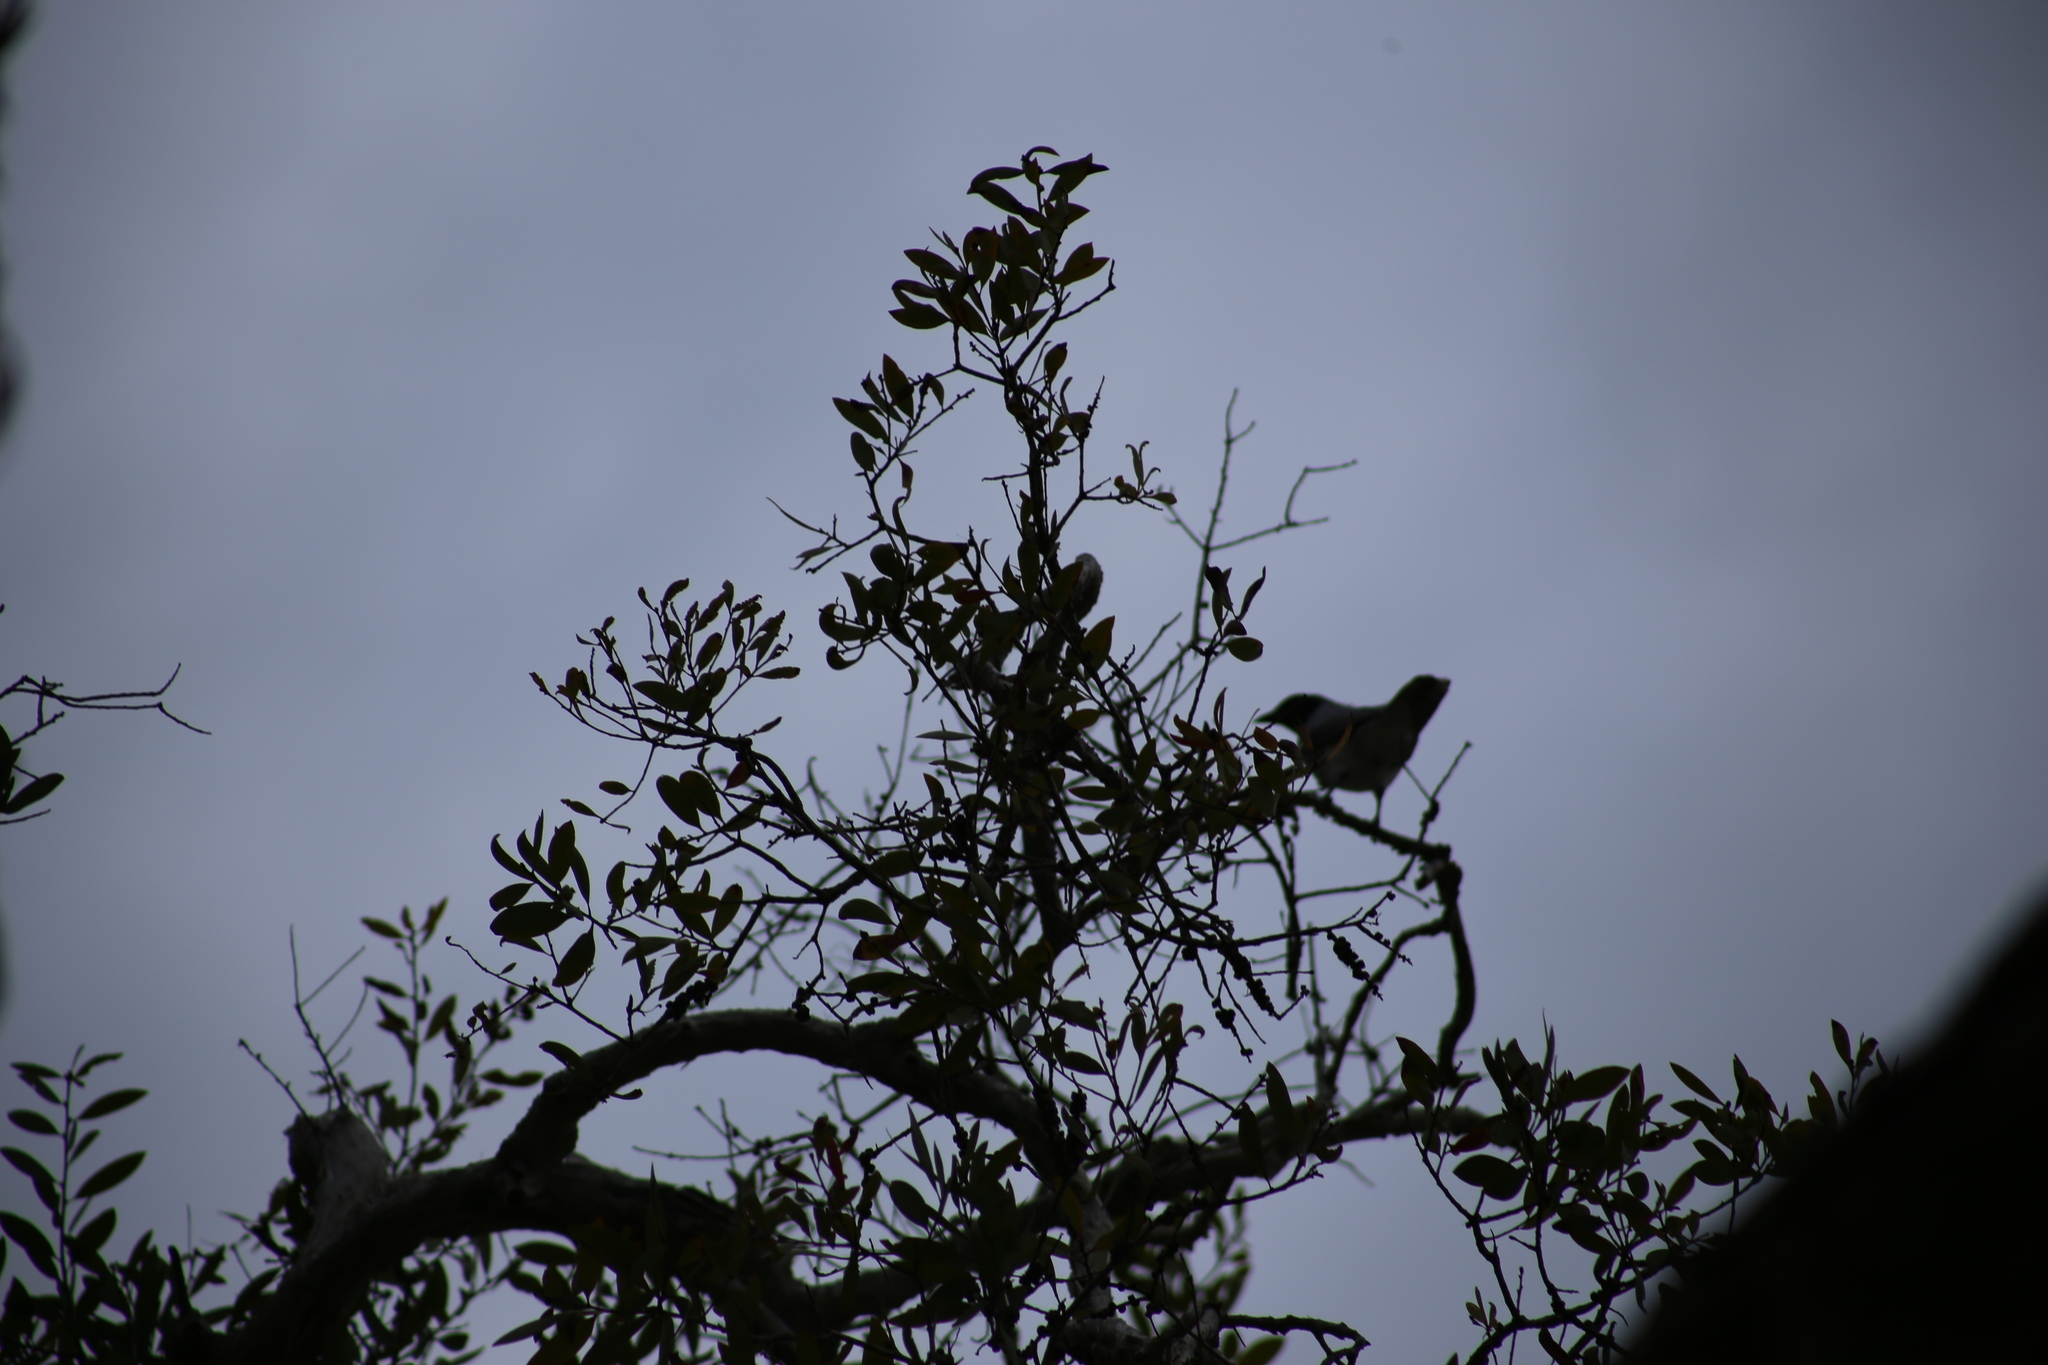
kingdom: Animalia
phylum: Chordata
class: Aves
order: Passeriformes
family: Campephagidae
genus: Coracina
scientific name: Coracina novaehollandiae
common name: Black-faced cuckooshrike
